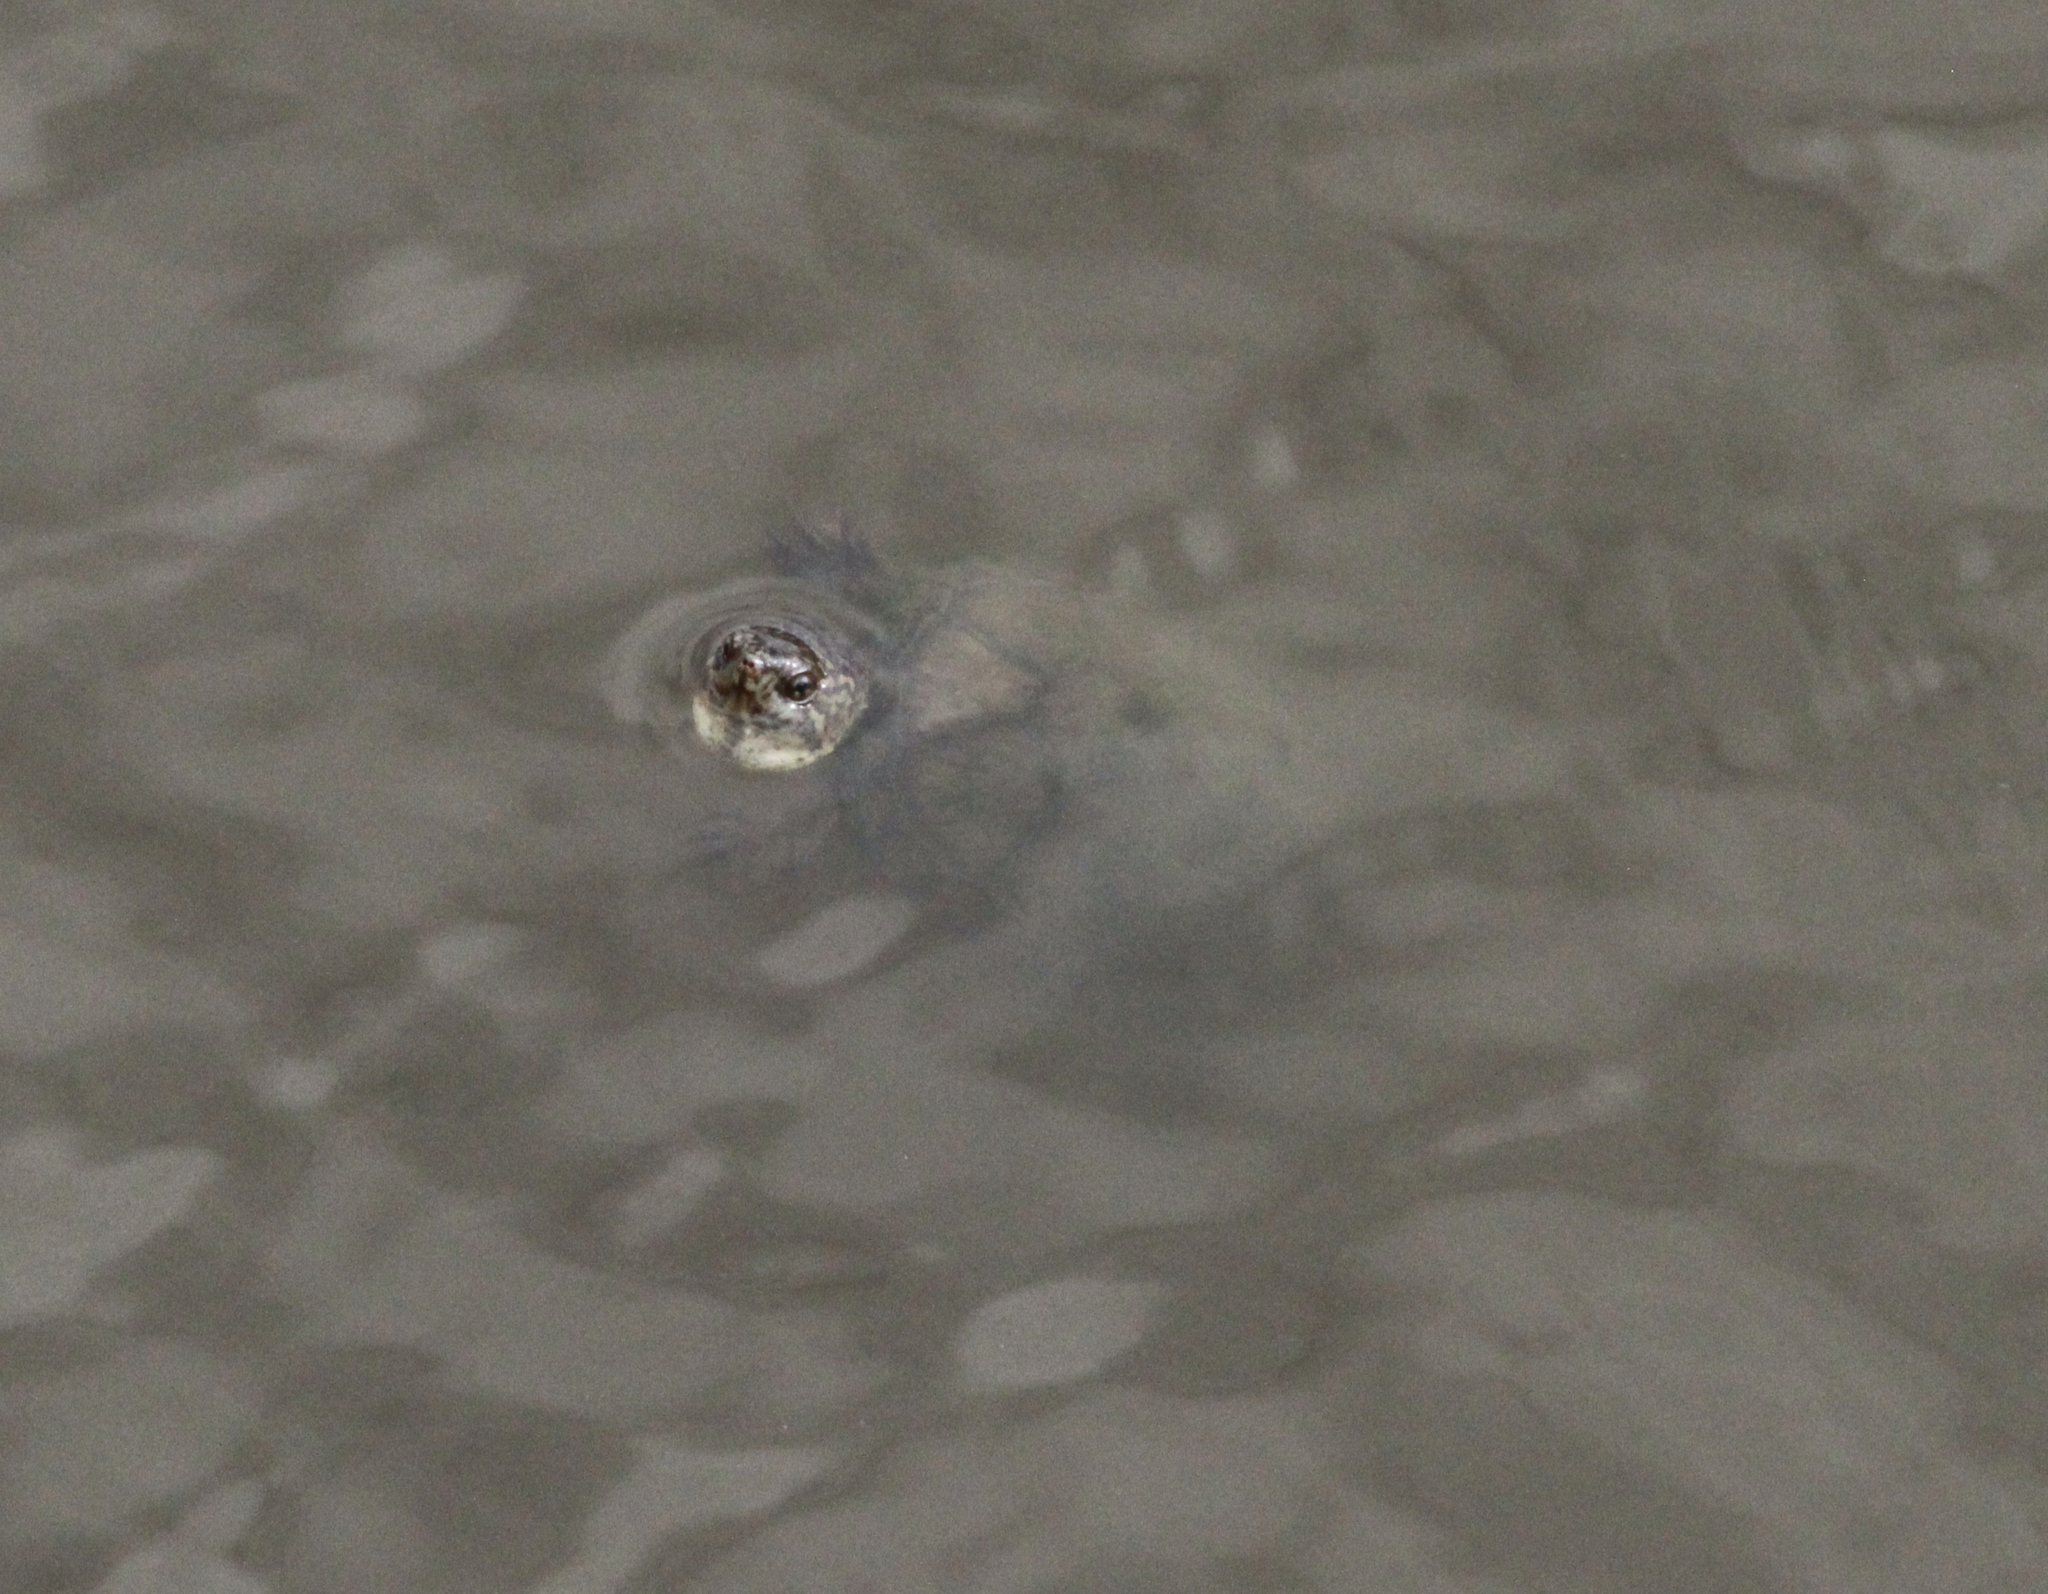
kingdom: Animalia
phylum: Chordata
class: Testudines
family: Kinosternidae
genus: Kinosternon
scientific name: Kinosternon integrum
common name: Mexican mud turtle
